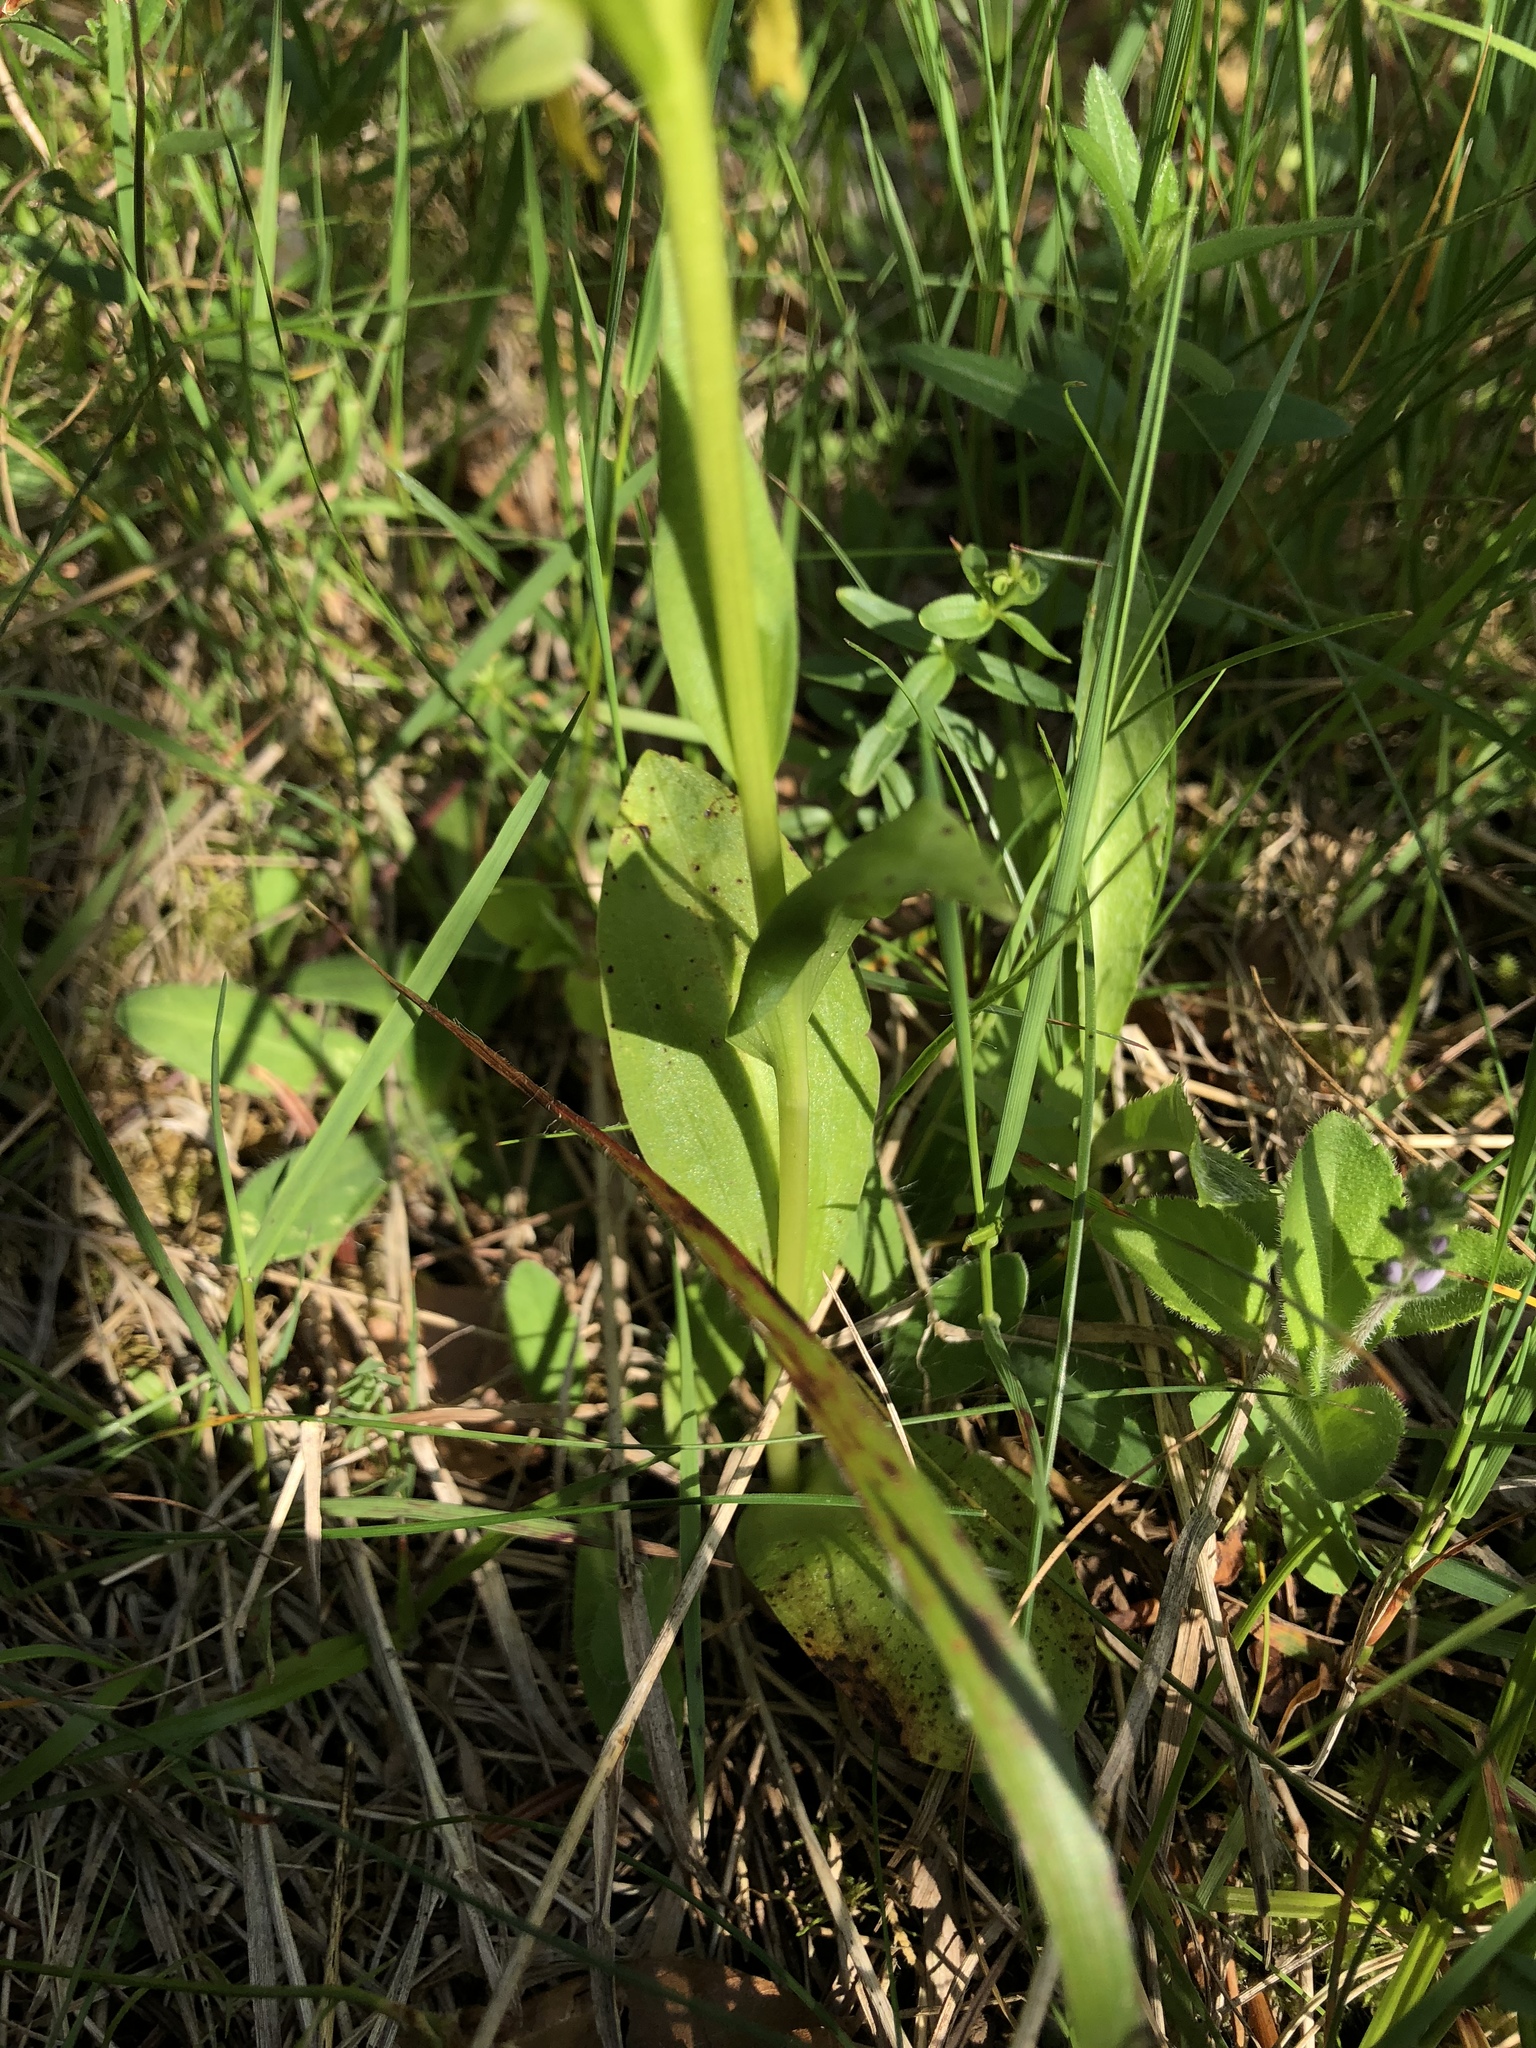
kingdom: Plantae
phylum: Tracheophyta
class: Liliopsida
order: Asparagales
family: Orchidaceae
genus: Dactylorhiza
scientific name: Dactylorhiza viridis
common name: Longbract frog orchid
